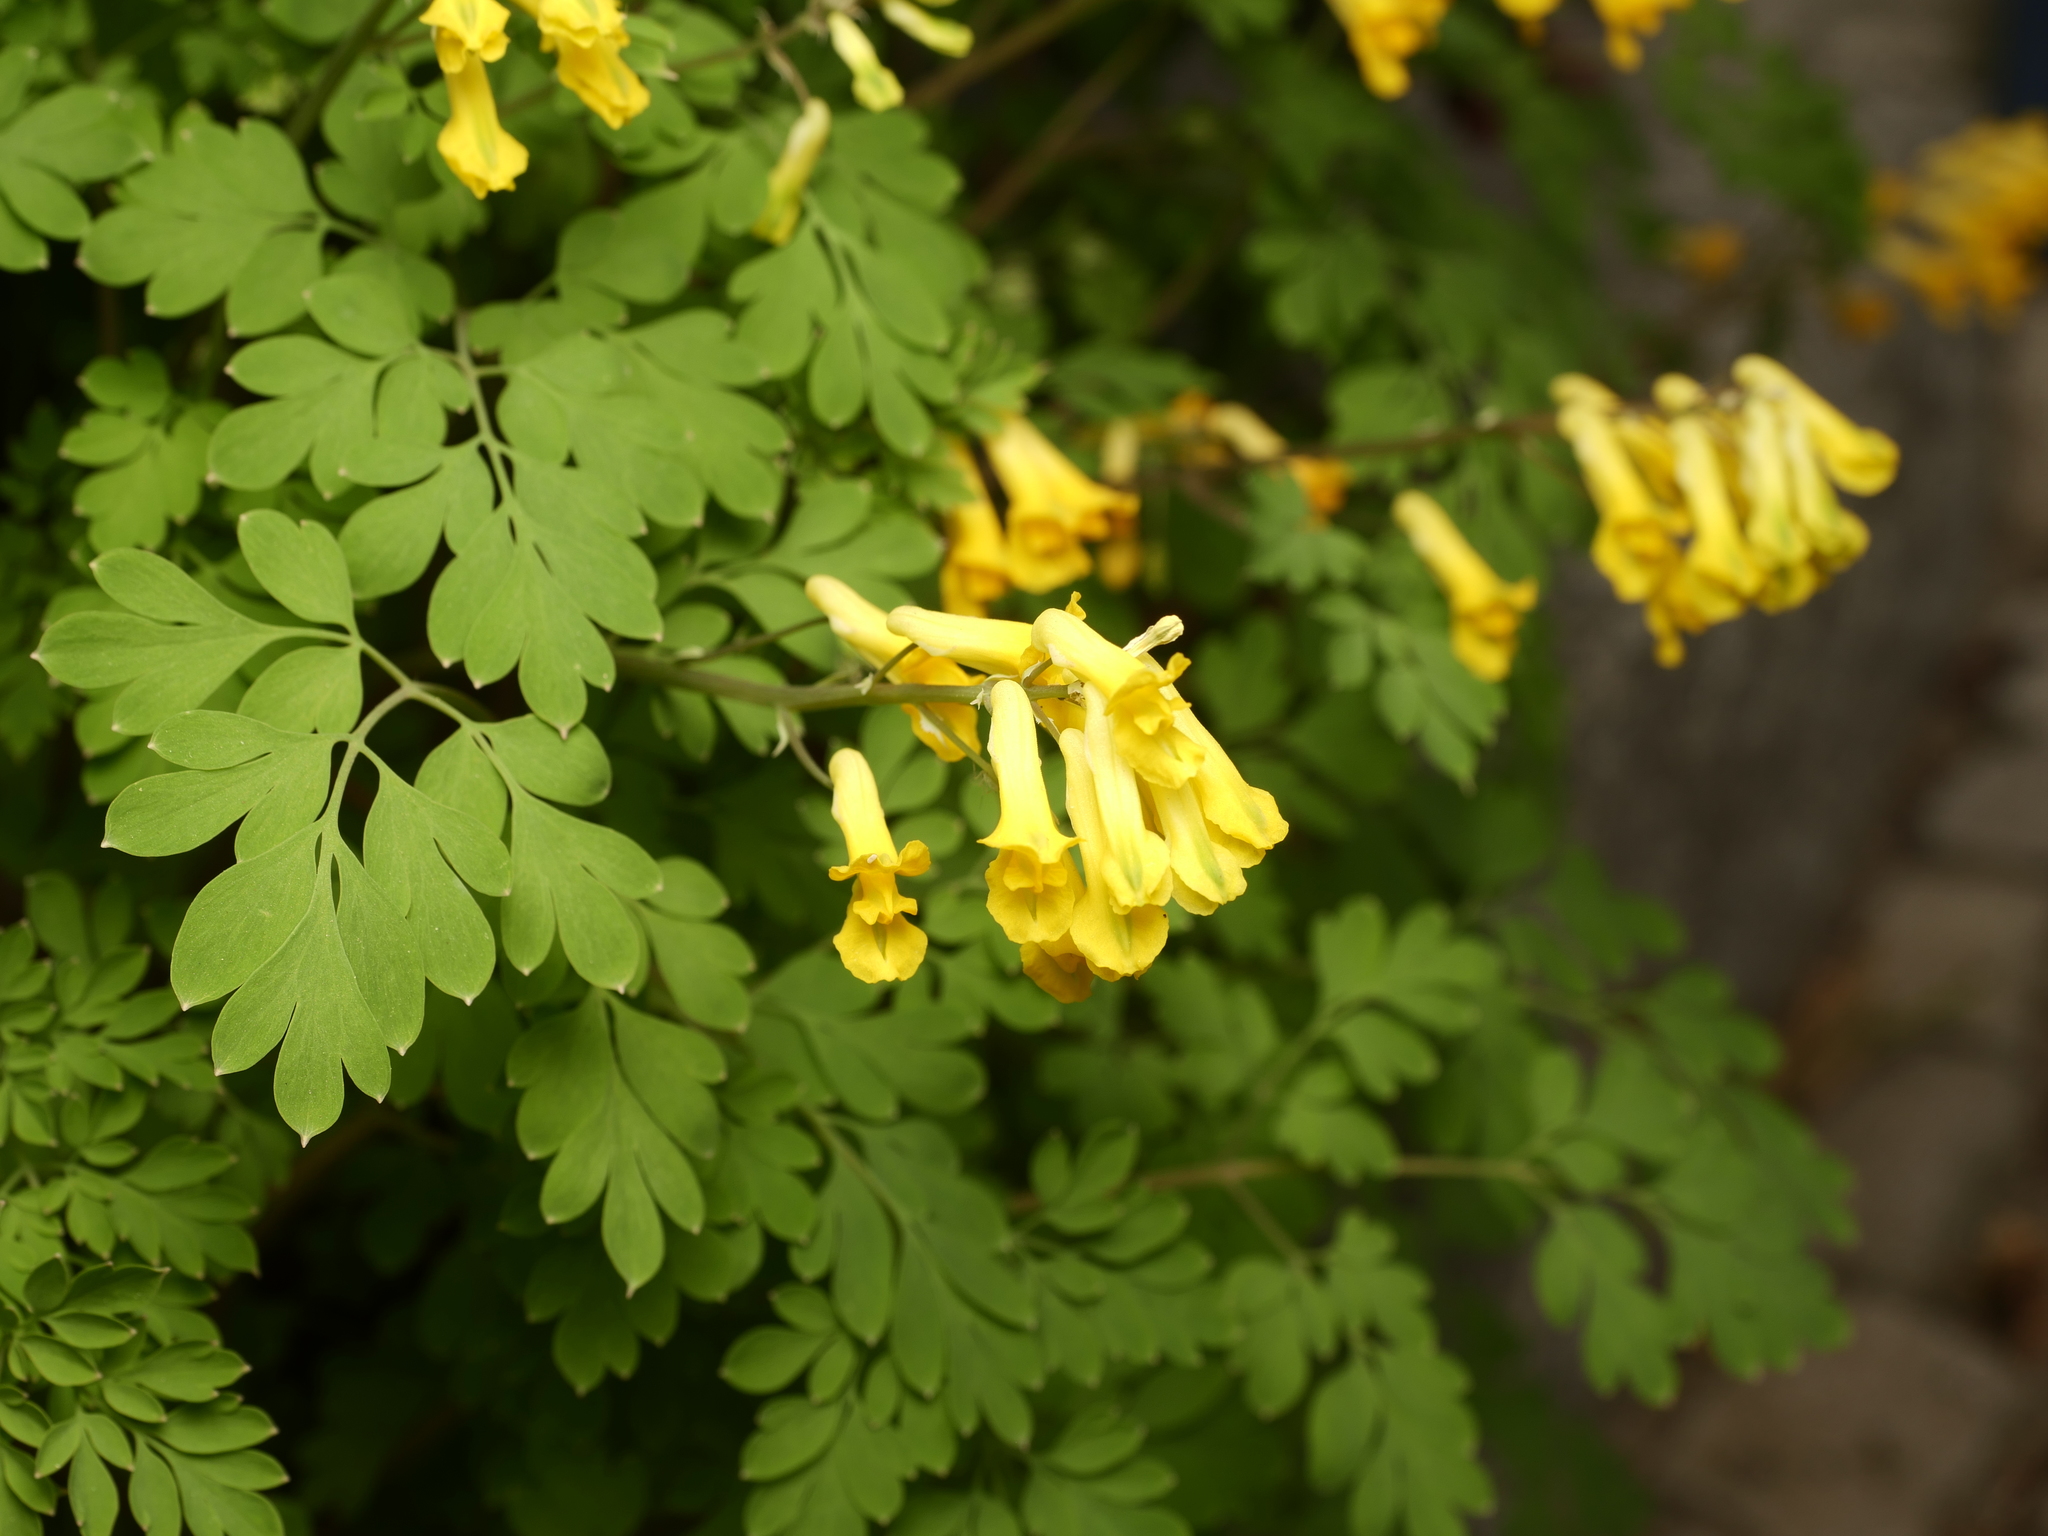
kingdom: Plantae
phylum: Tracheophyta
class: Magnoliopsida
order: Ranunculales
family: Papaveraceae
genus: Pseudofumaria
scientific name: Pseudofumaria lutea
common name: Yellow corydalis
